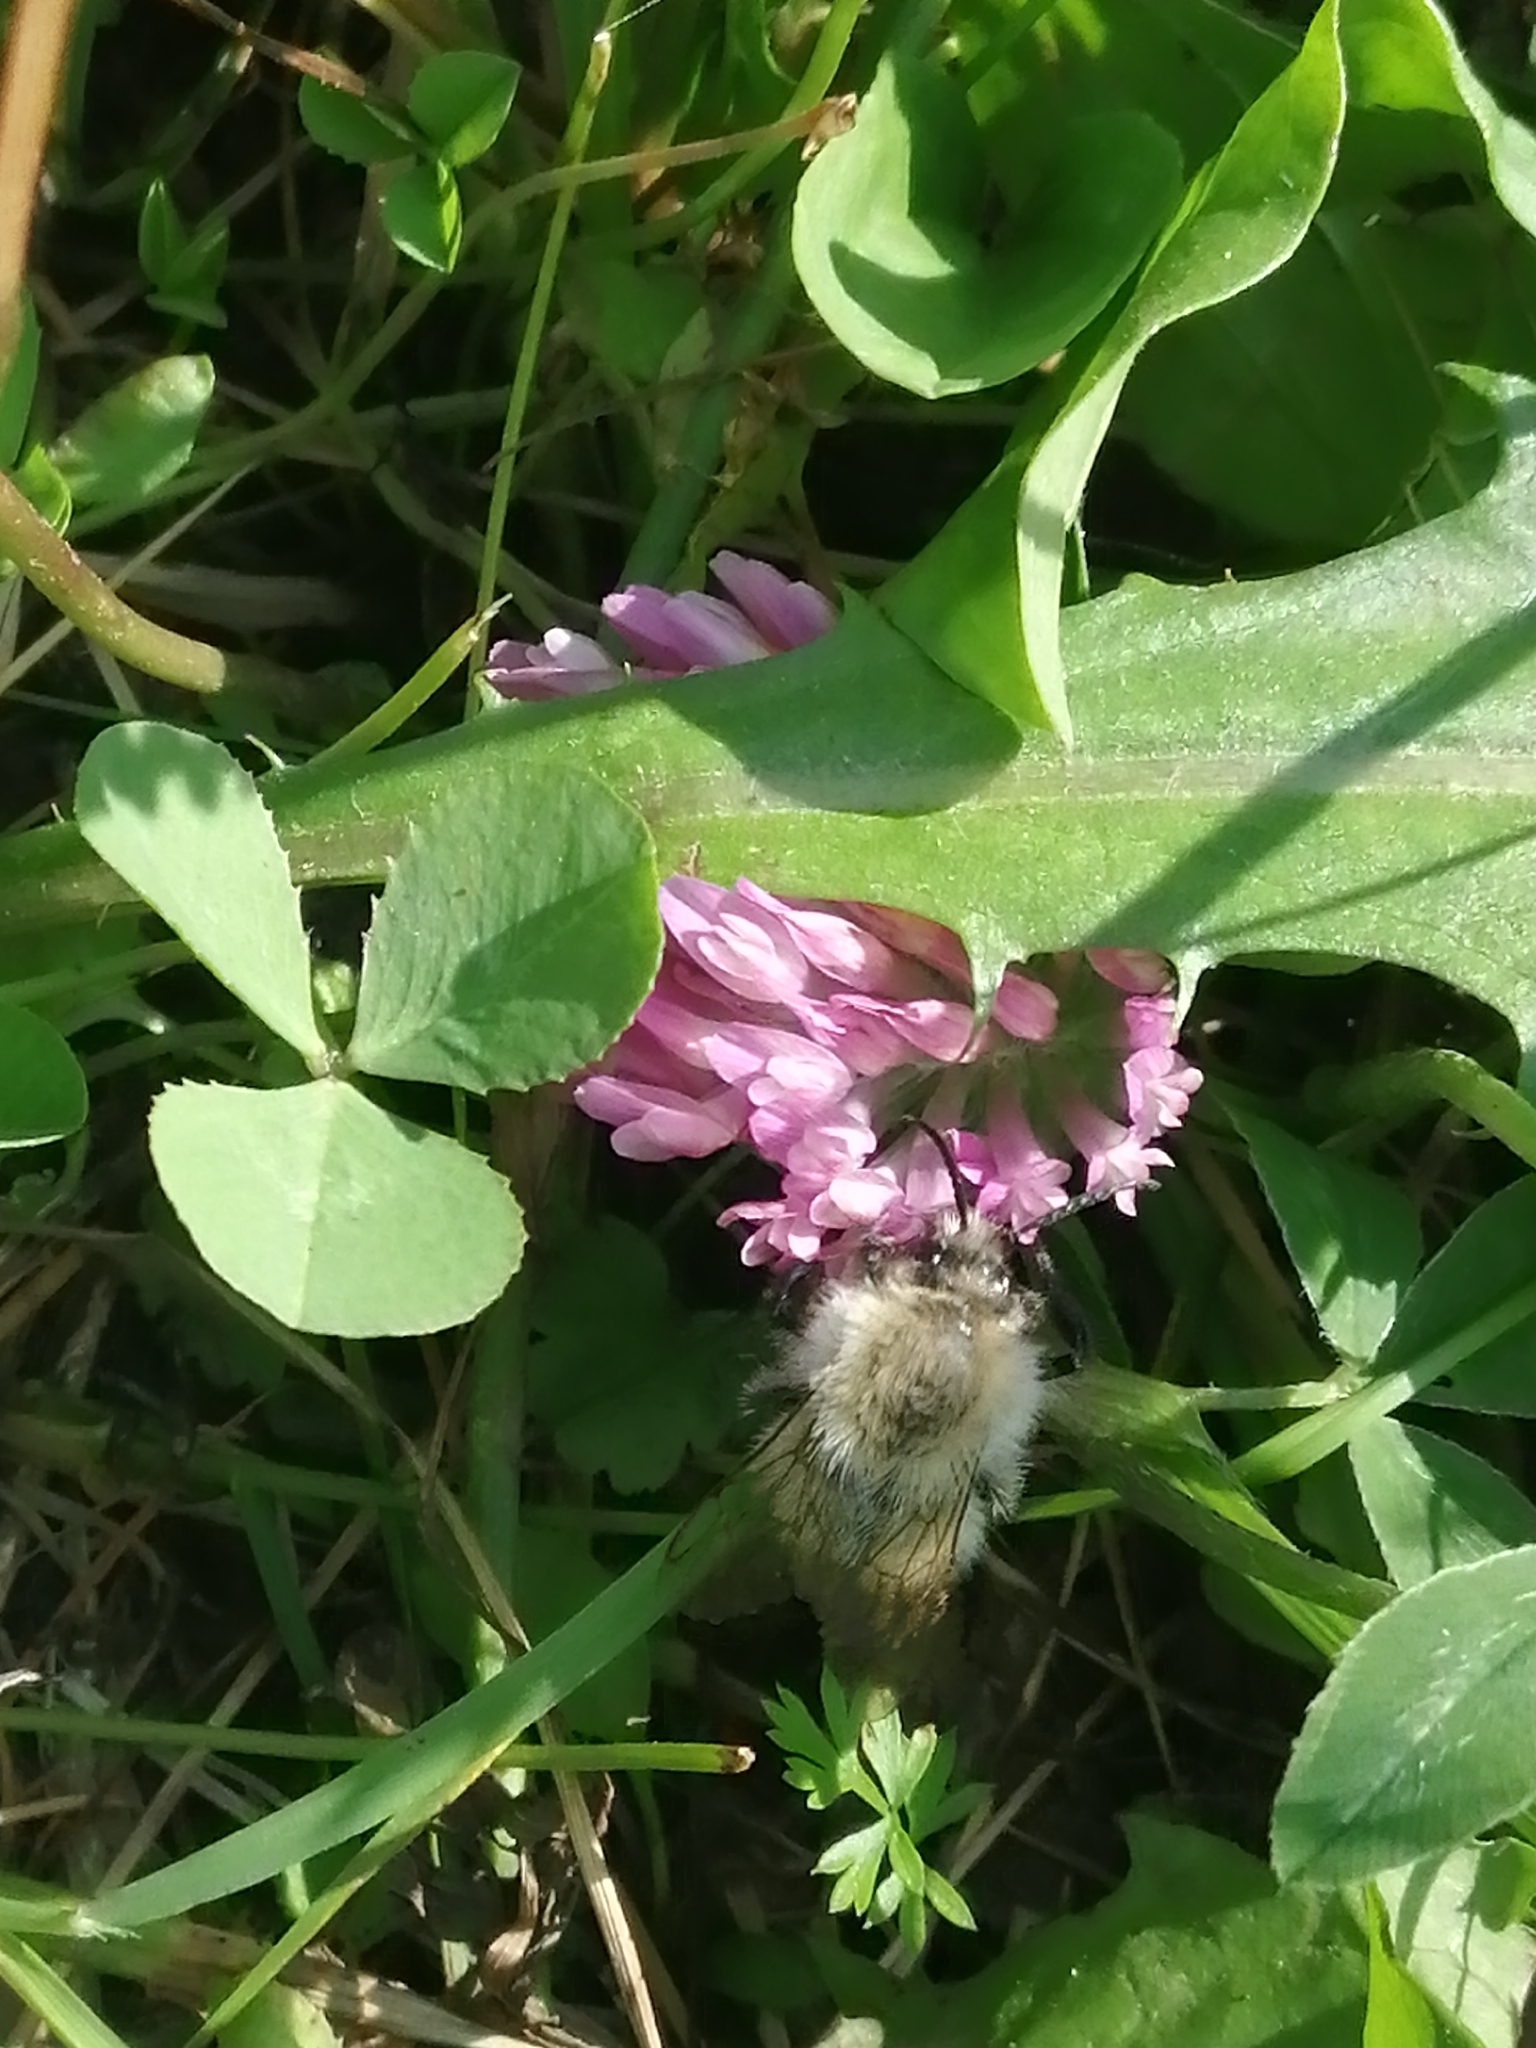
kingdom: Animalia
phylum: Arthropoda
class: Insecta
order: Hymenoptera
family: Apidae
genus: Bombus
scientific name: Bombus pascuorum
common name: Common carder bee
